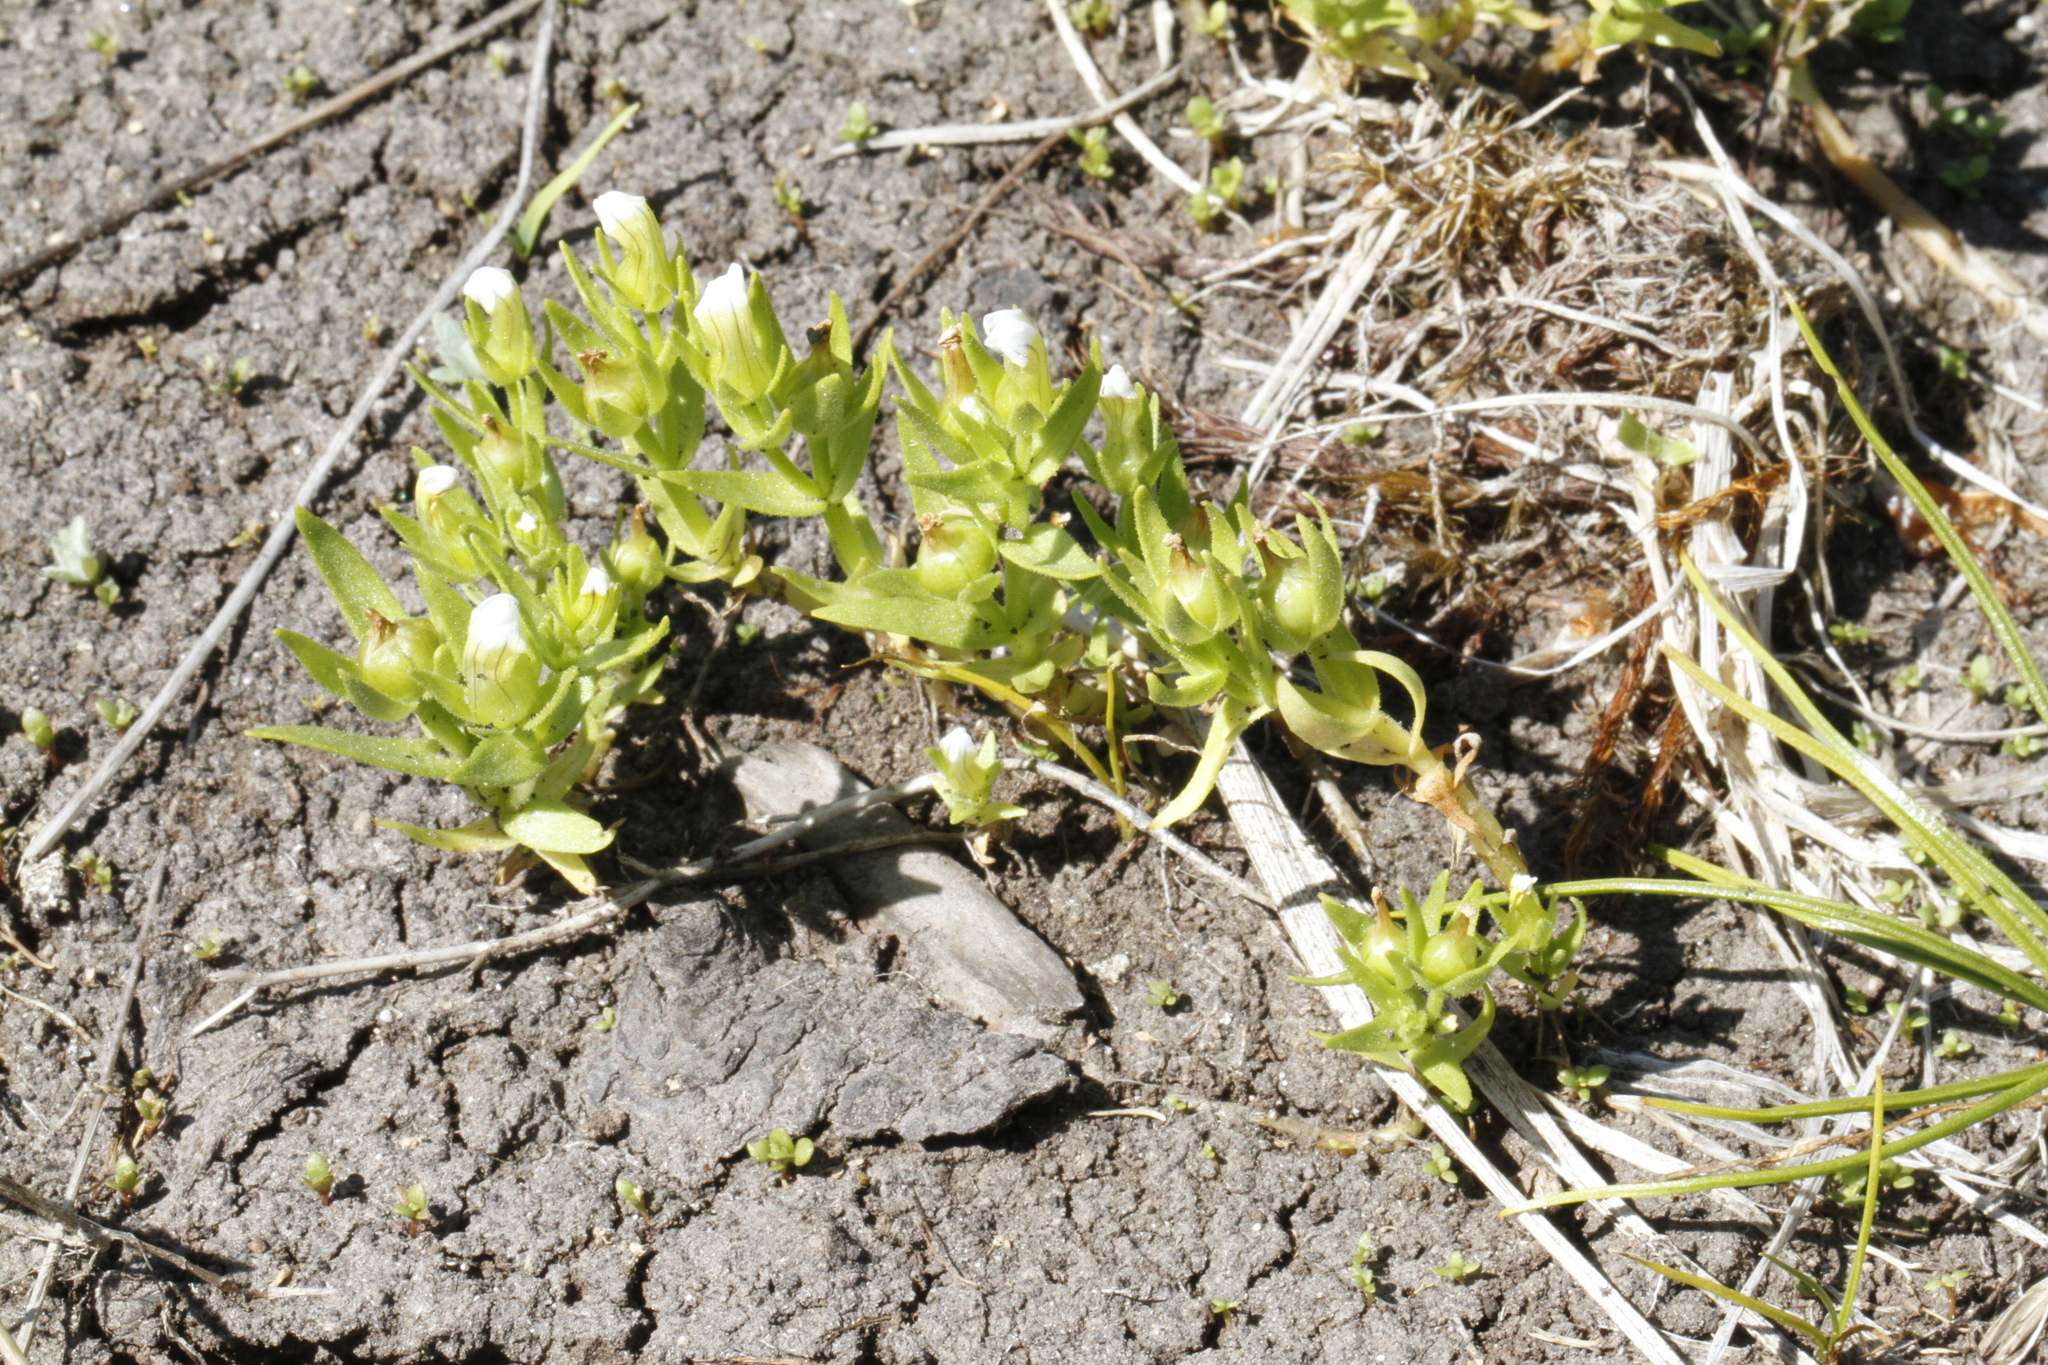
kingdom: Plantae
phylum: Tracheophyta
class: Magnoliopsida
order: Lamiales
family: Plantaginaceae
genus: Gratiola
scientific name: Gratiola ebracteata
